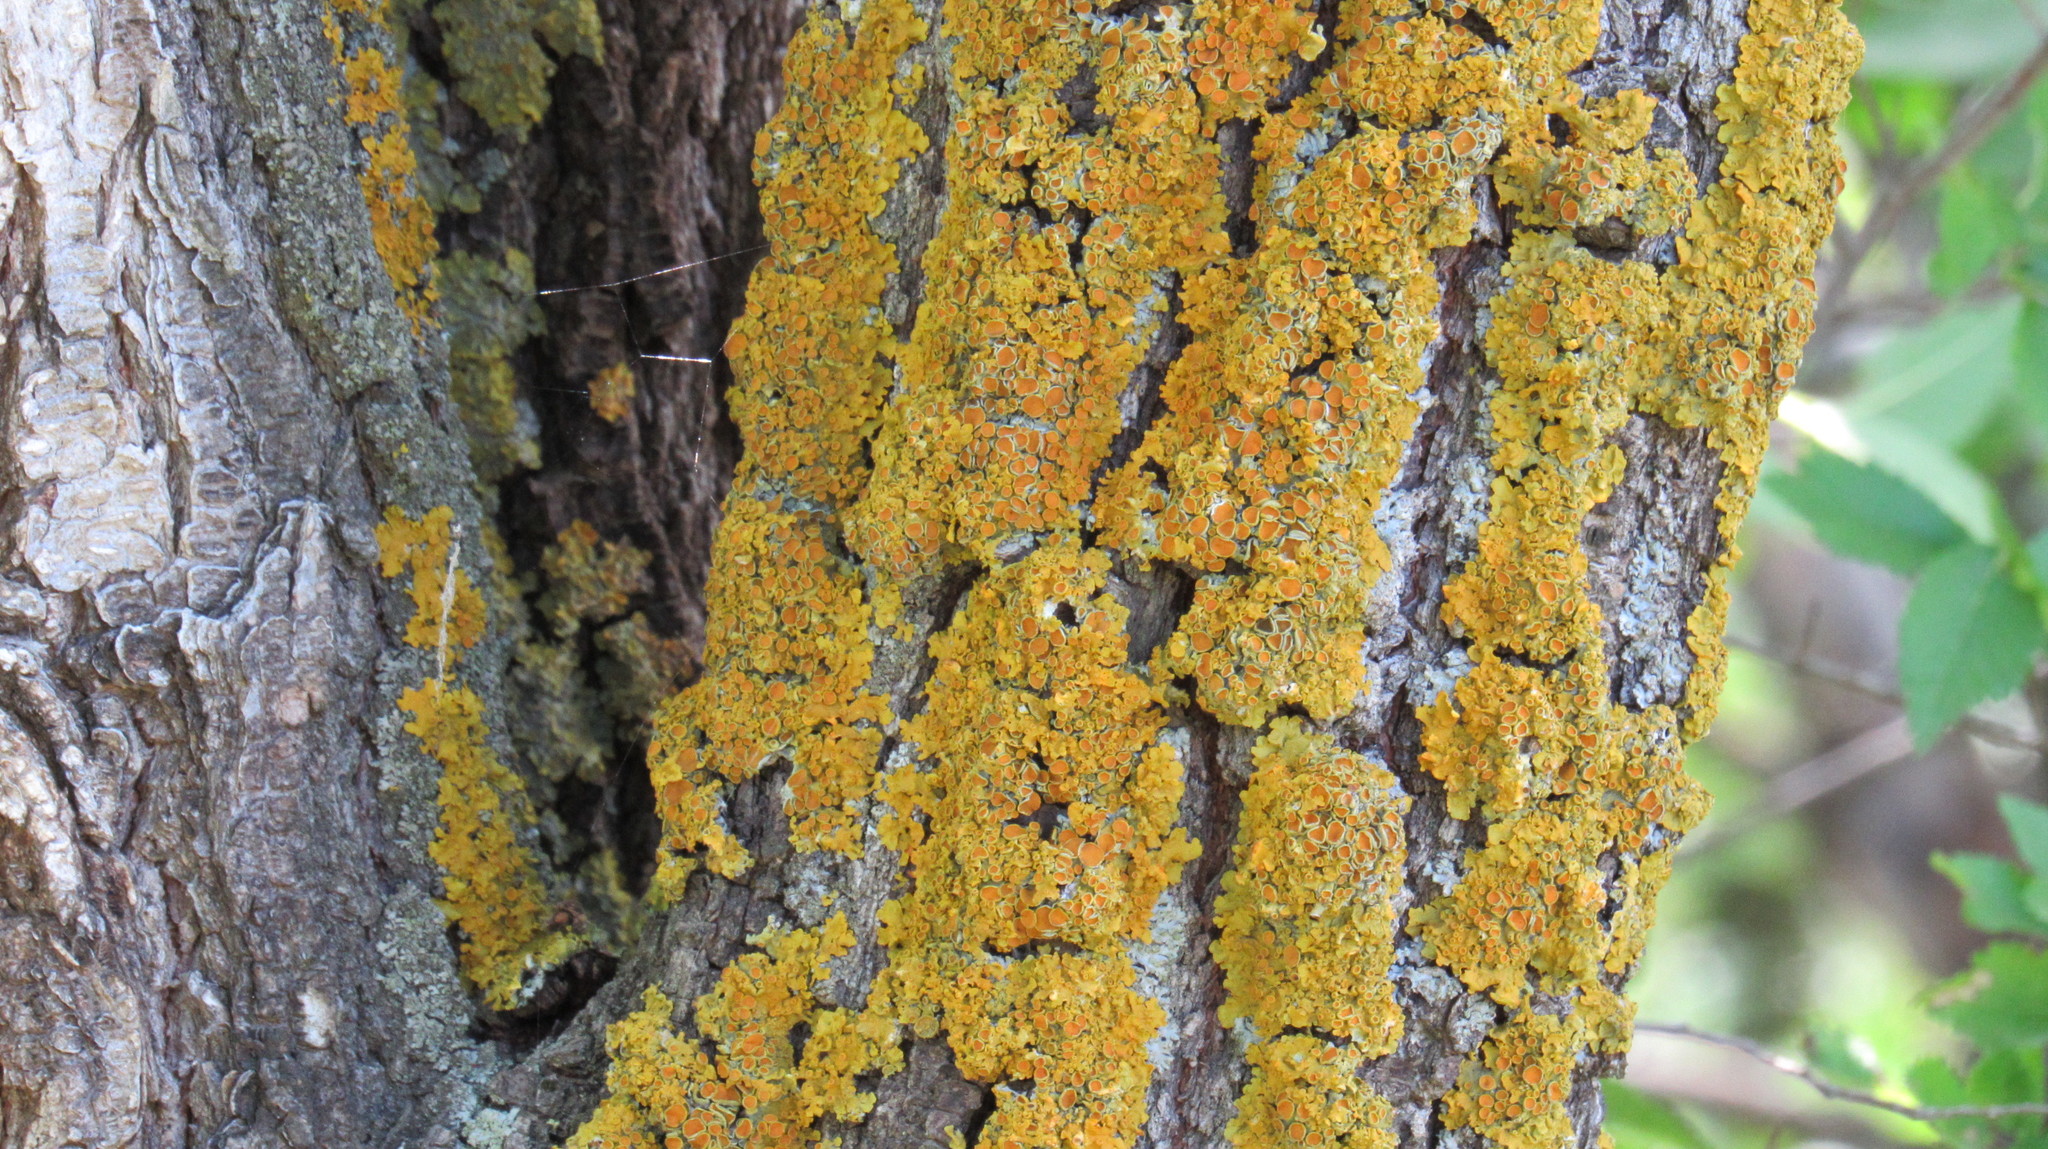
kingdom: Fungi
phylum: Ascomycota
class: Lecanoromycetes
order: Teloschistales
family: Teloschistaceae
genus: Xanthoria
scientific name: Xanthoria parietina
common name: Common orange lichen
